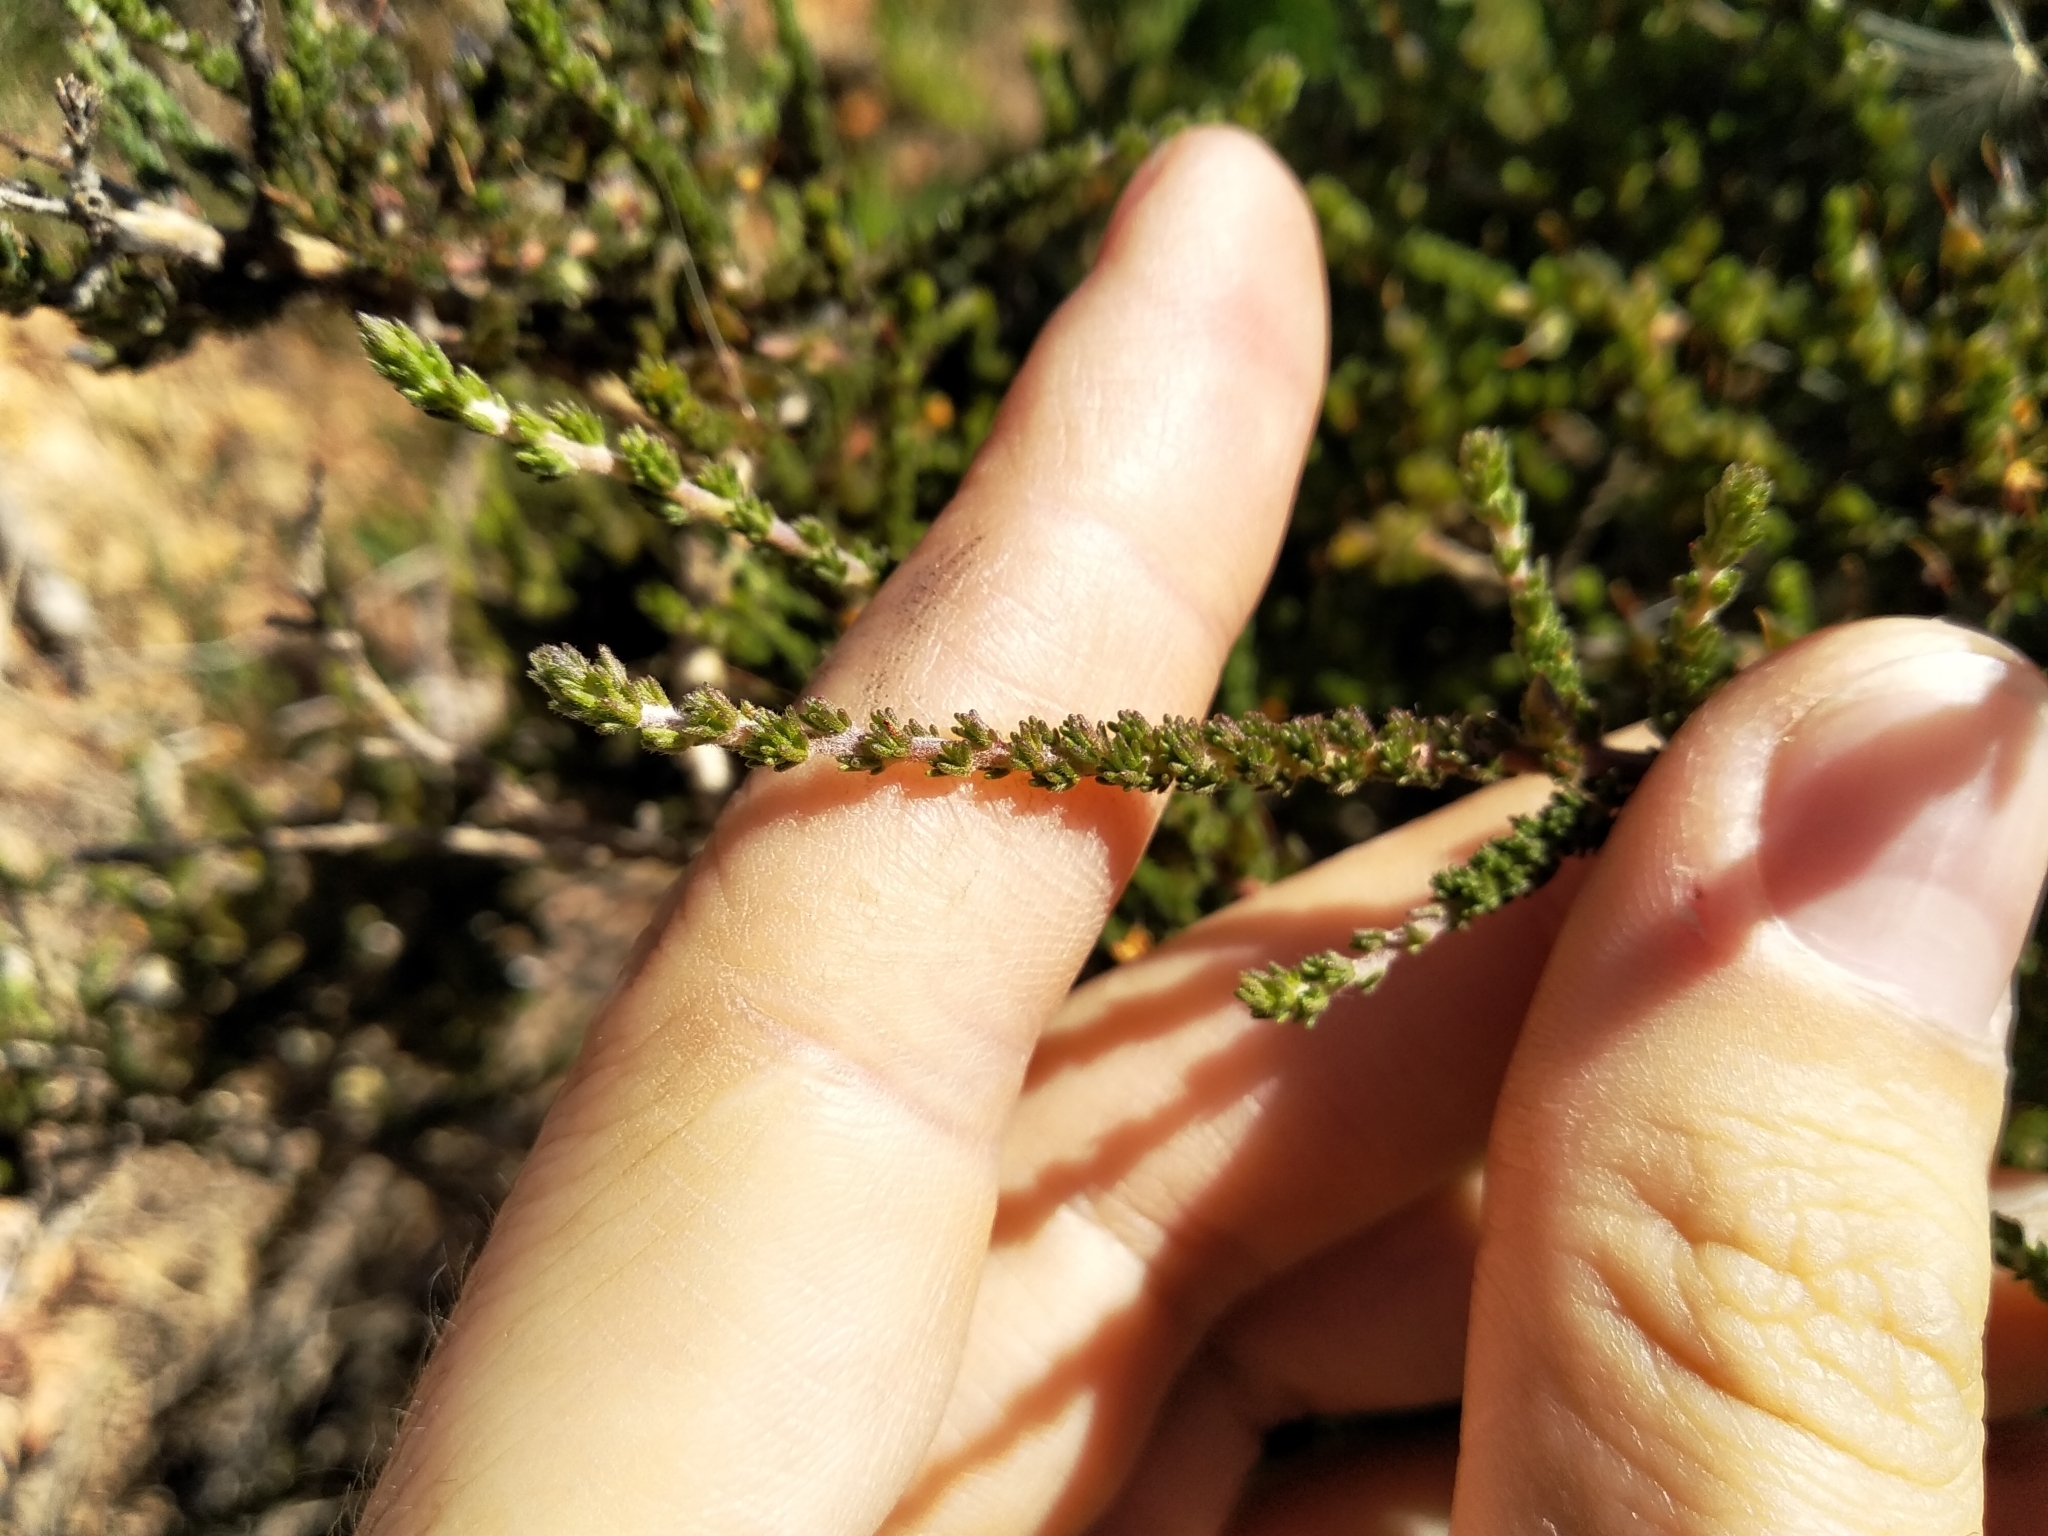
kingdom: Plantae
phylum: Tracheophyta
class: Magnoliopsida
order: Fabales
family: Fabaceae
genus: Aspalathus
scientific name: Aspalathus hispida
